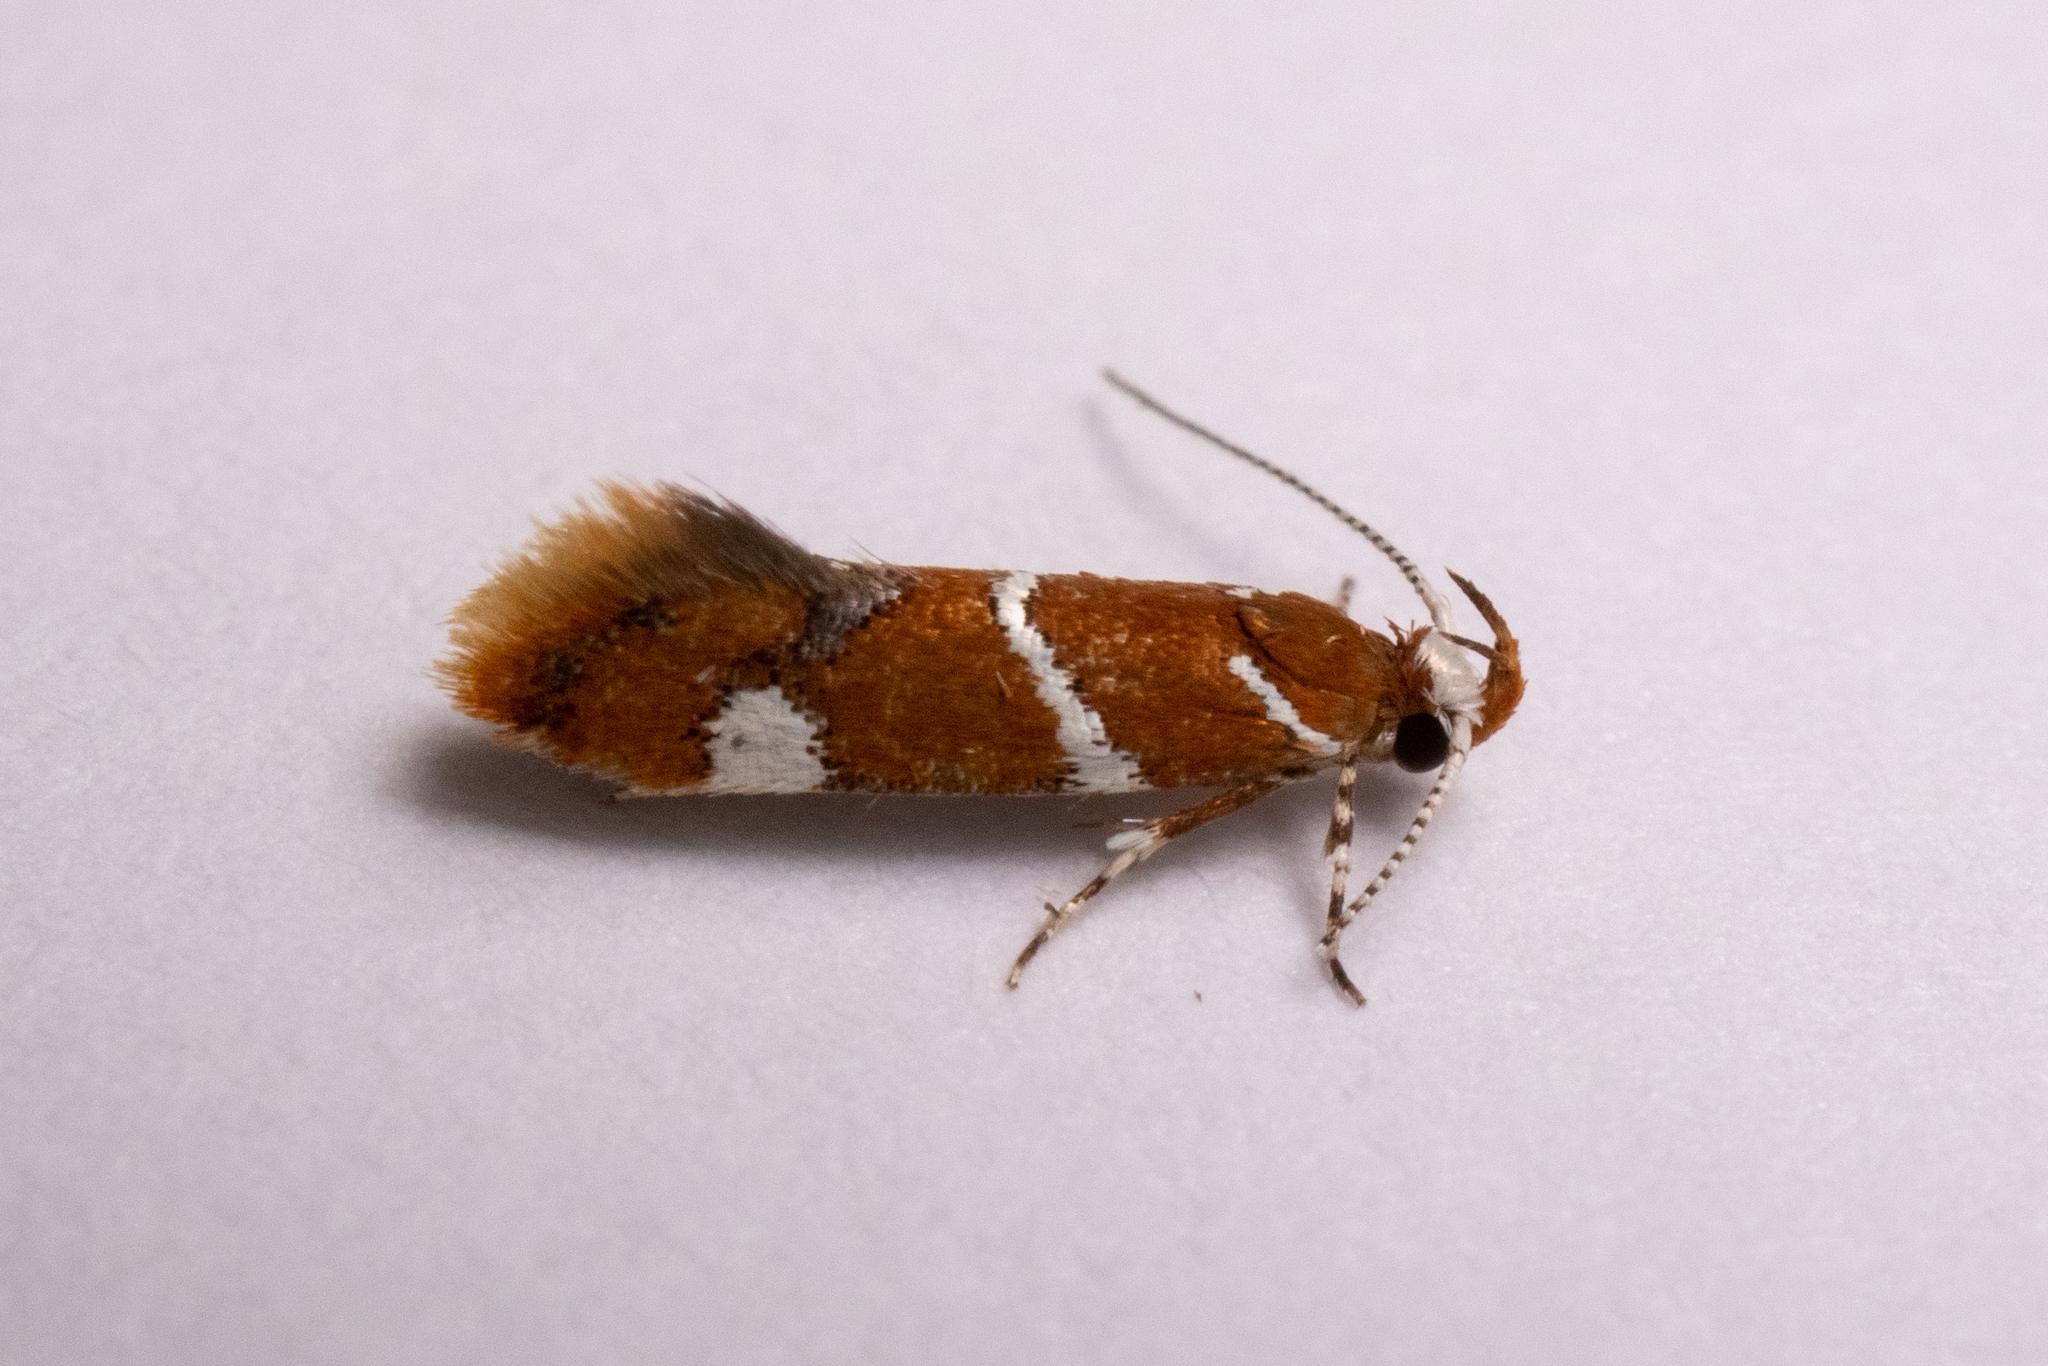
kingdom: Animalia
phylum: Arthropoda
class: Insecta
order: Lepidoptera
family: Oecophoridae
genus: Promalactis
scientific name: Promalactis suzukiella
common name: Moth
